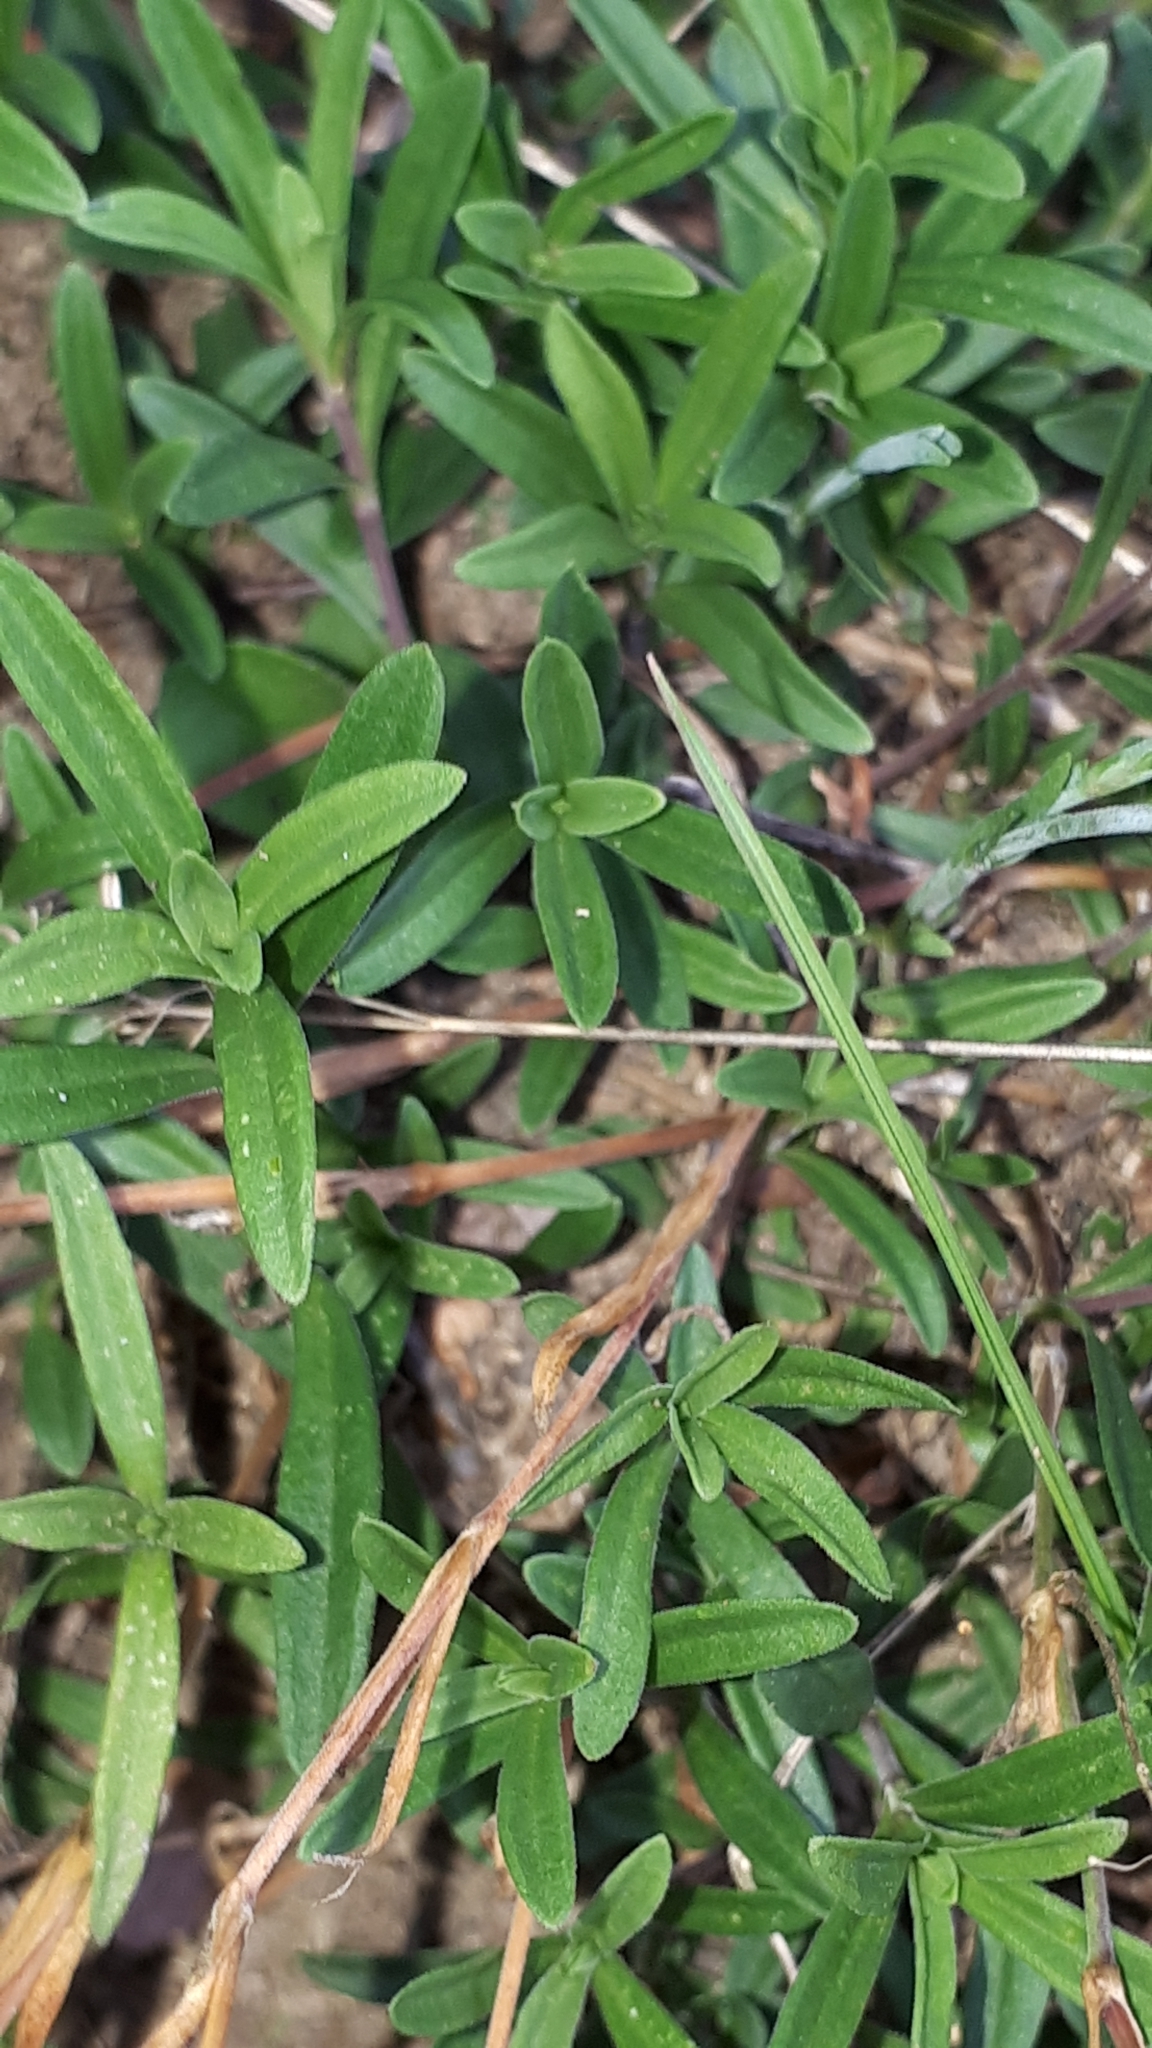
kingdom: Plantae
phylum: Tracheophyta
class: Magnoliopsida
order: Caryophyllales
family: Caryophyllaceae
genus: Dianthus
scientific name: Dianthus deltoides
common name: Maiden pink
